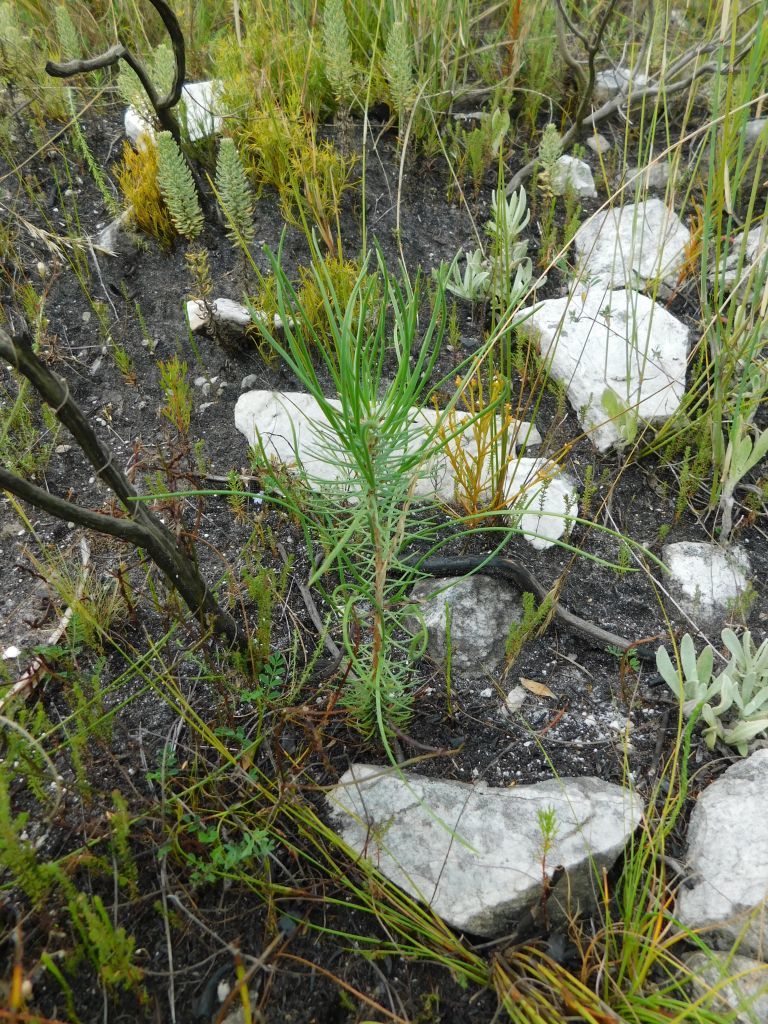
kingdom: Plantae
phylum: Tracheophyta
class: Pinopsida
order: Pinales
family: Pinaceae
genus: Pinus
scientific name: Pinus pinaster
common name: Maritime pine
